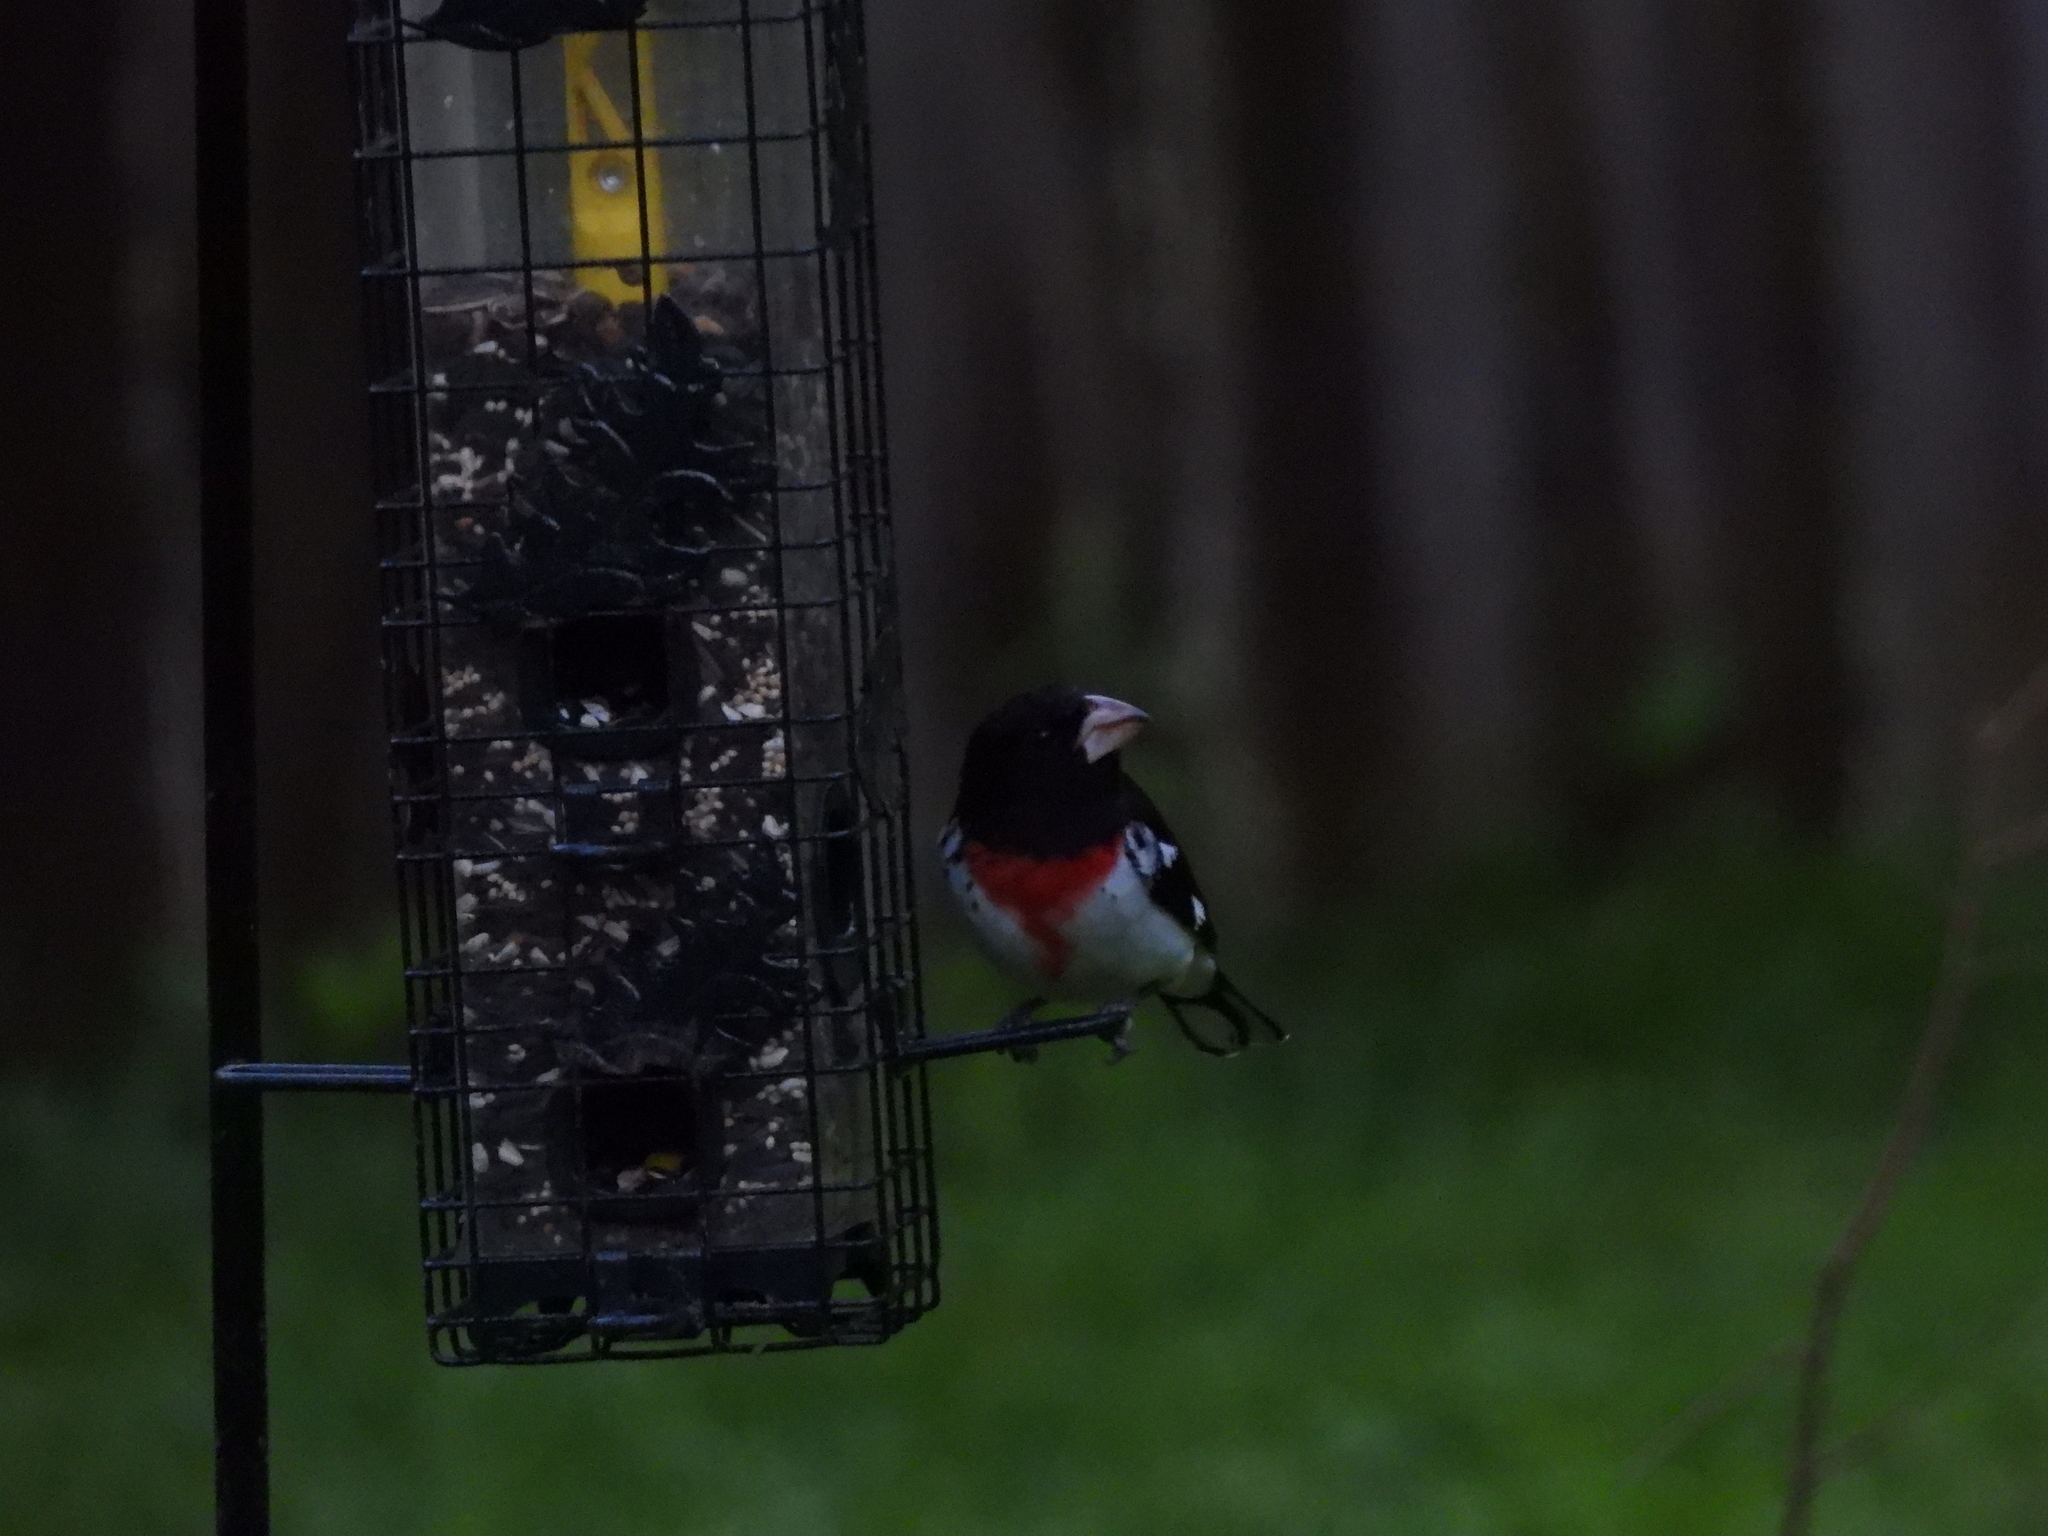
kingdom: Animalia
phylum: Chordata
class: Aves
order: Passeriformes
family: Cardinalidae
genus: Pheucticus
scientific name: Pheucticus ludovicianus
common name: Rose-breasted grosbeak
